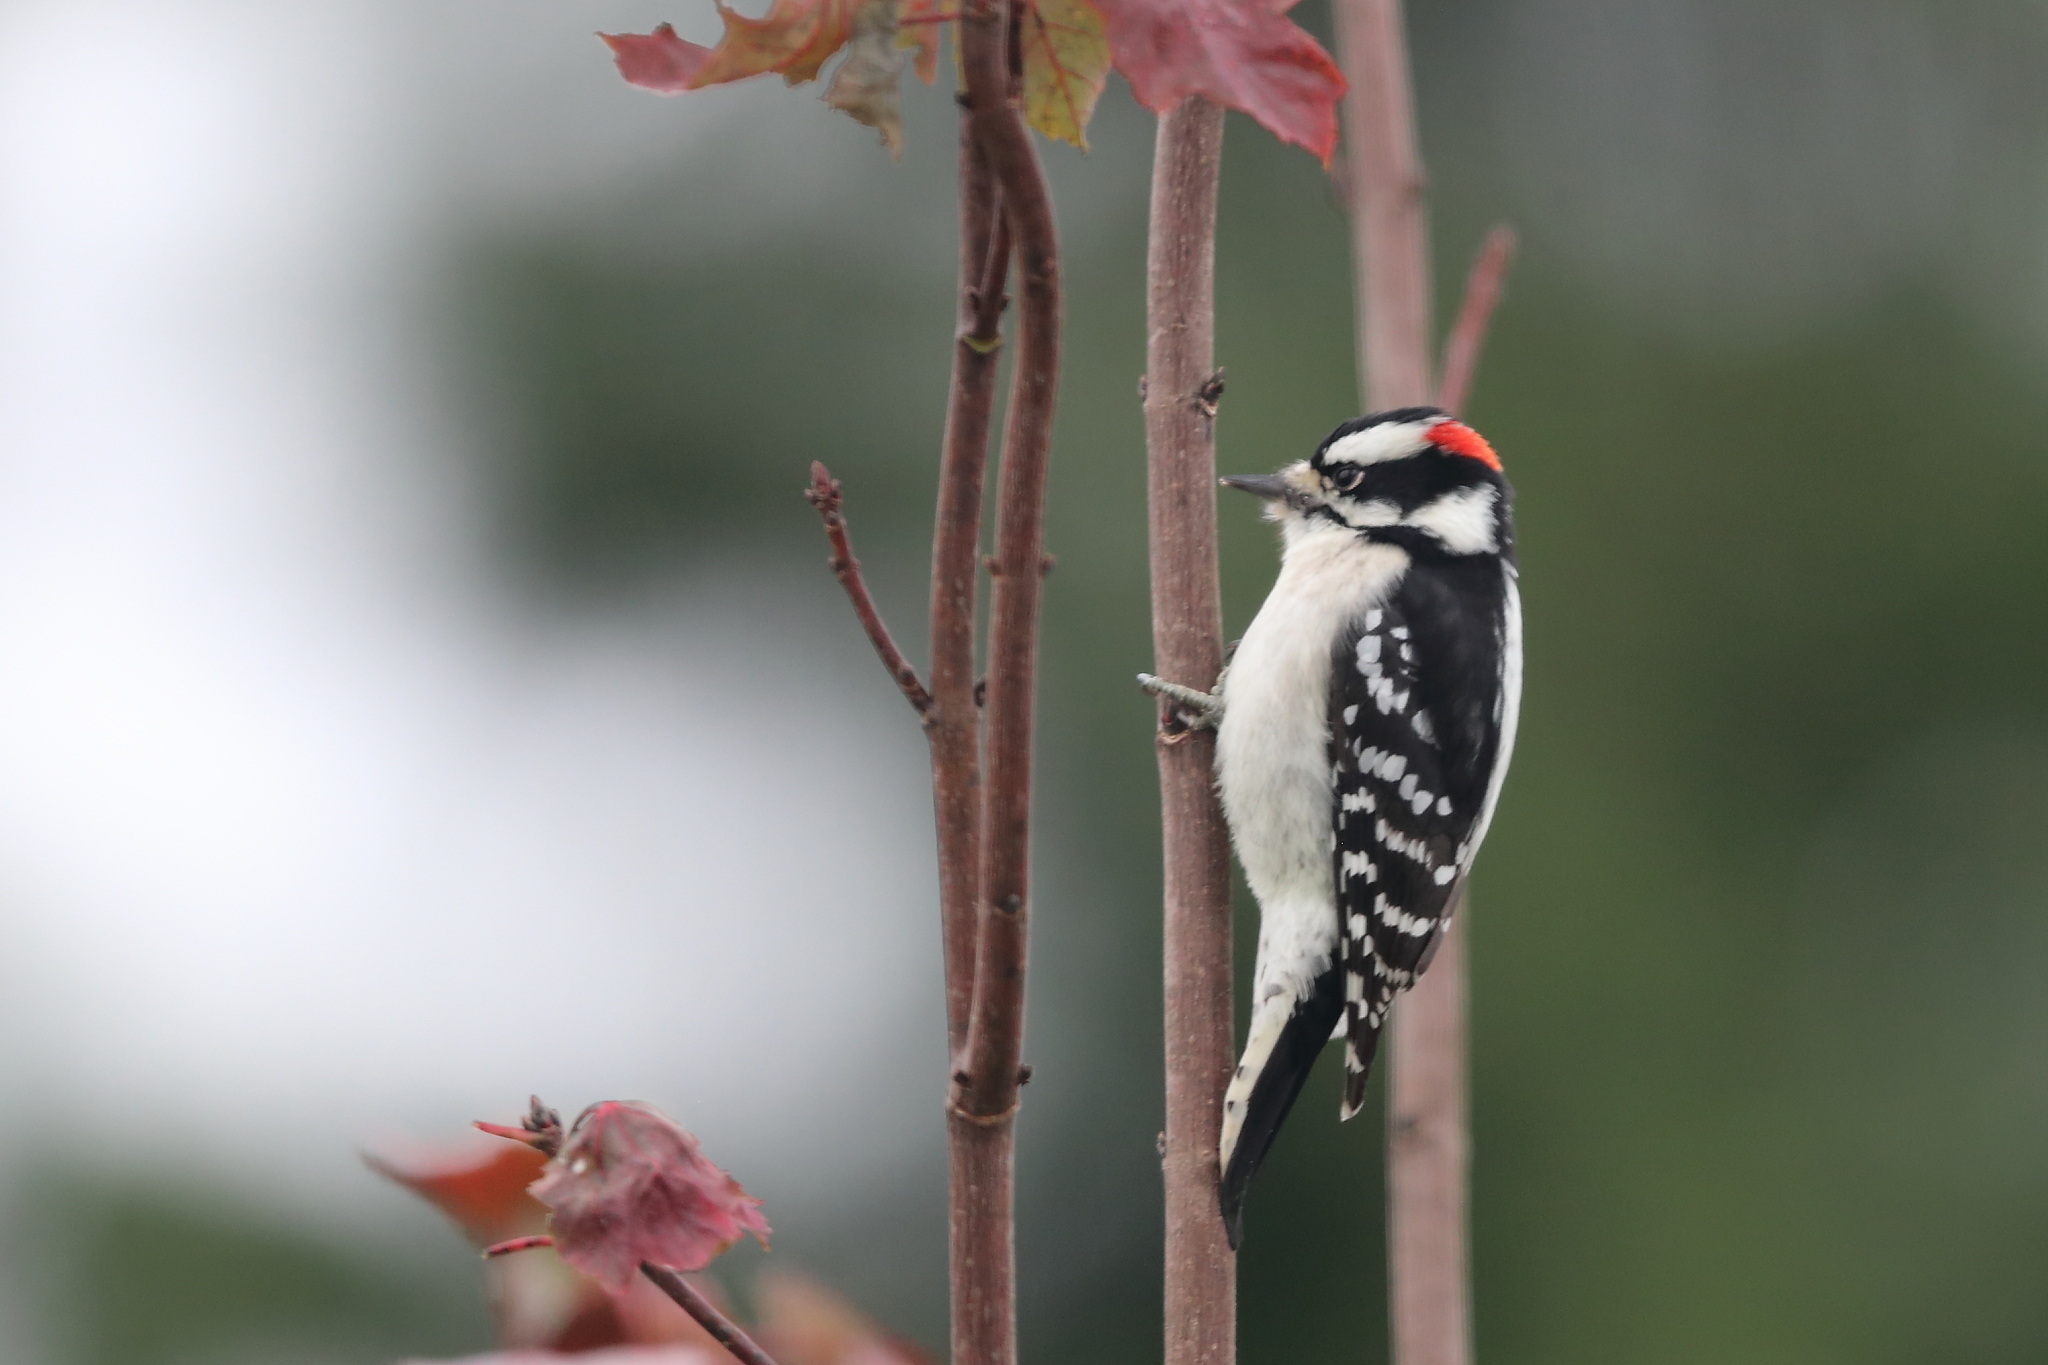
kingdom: Animalia
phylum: Chordata
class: Aves
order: Piciformes
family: Picidae
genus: Dryobates
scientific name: Dryobates pubescens
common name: Downy woodpecker
